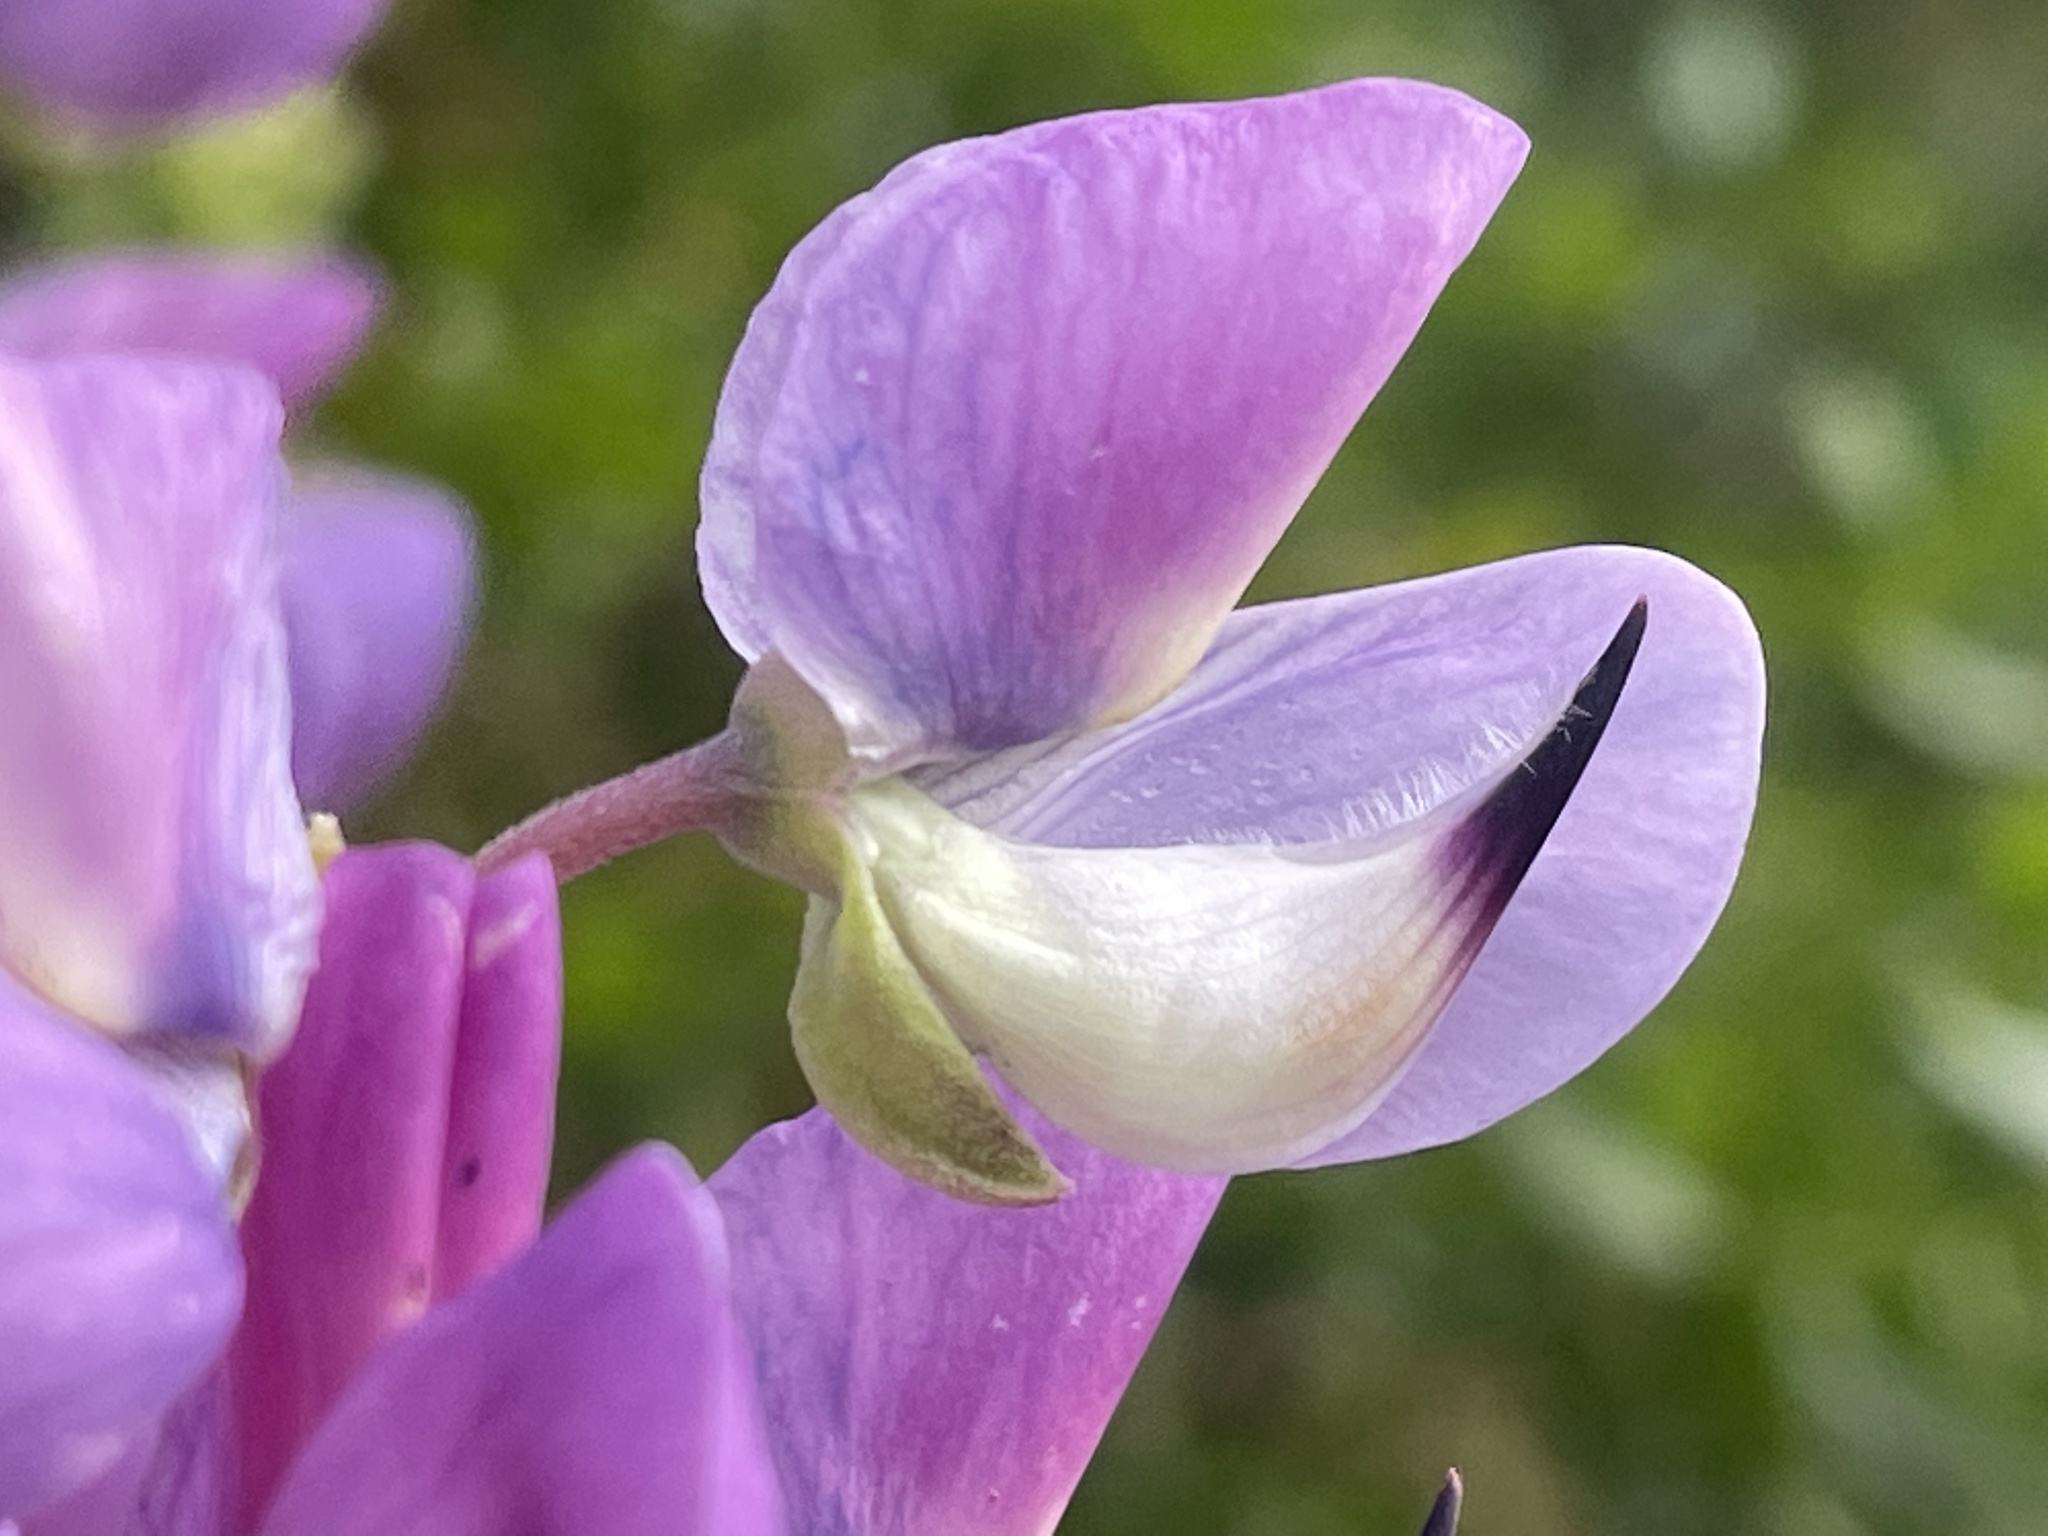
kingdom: Plantae
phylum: Tracheophyta
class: Magnoliopsida
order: Fabales
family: Fabaceae
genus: Lupinus
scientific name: Lupinus arboreus
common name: Yellow bush lupine
